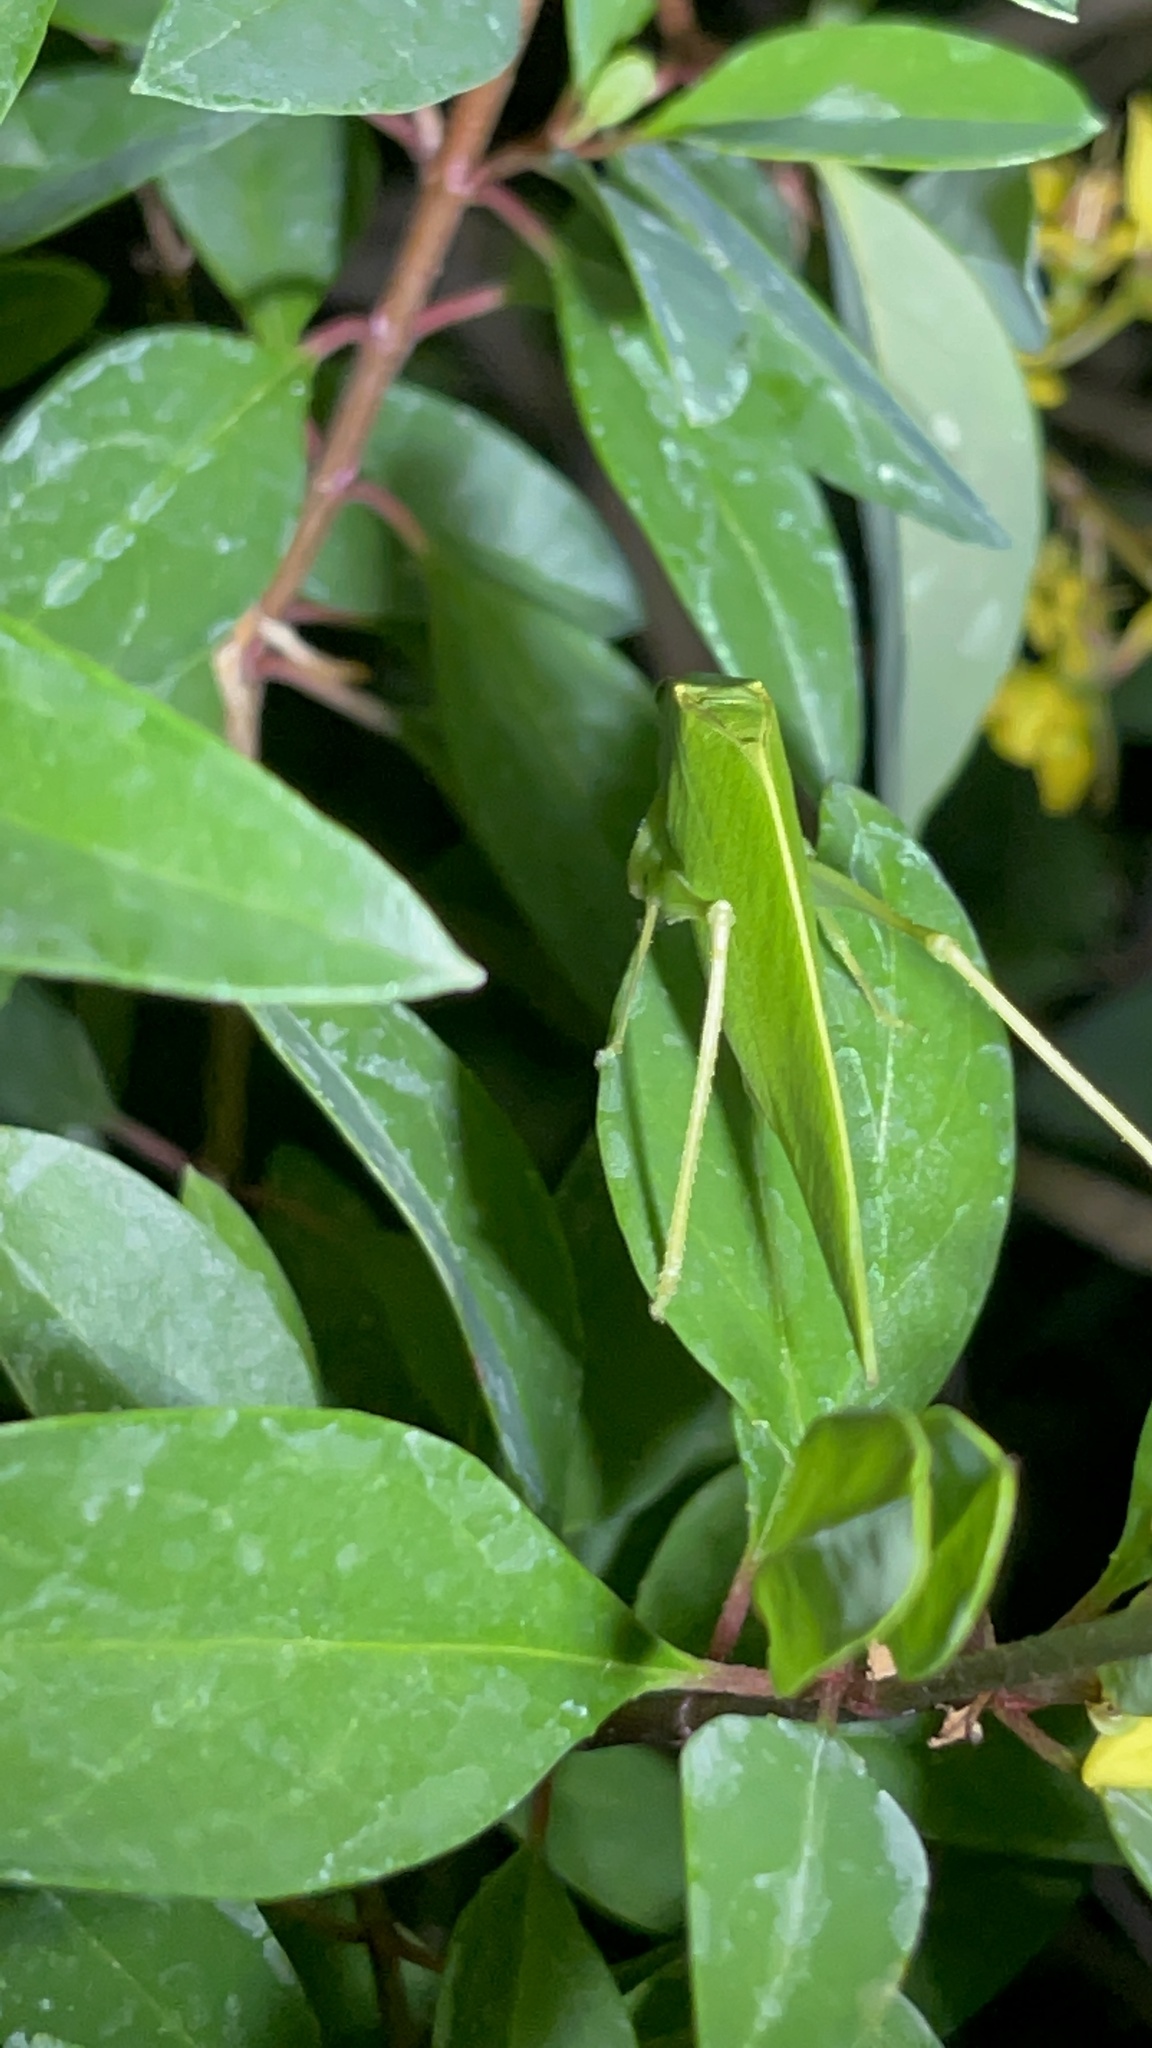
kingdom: Animalia
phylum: Arthropoda
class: Insecta
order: Orthoptera
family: Tettigoniidae
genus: Turpilia
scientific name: Turpilia rostrata
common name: Narrow-beaked katydid
